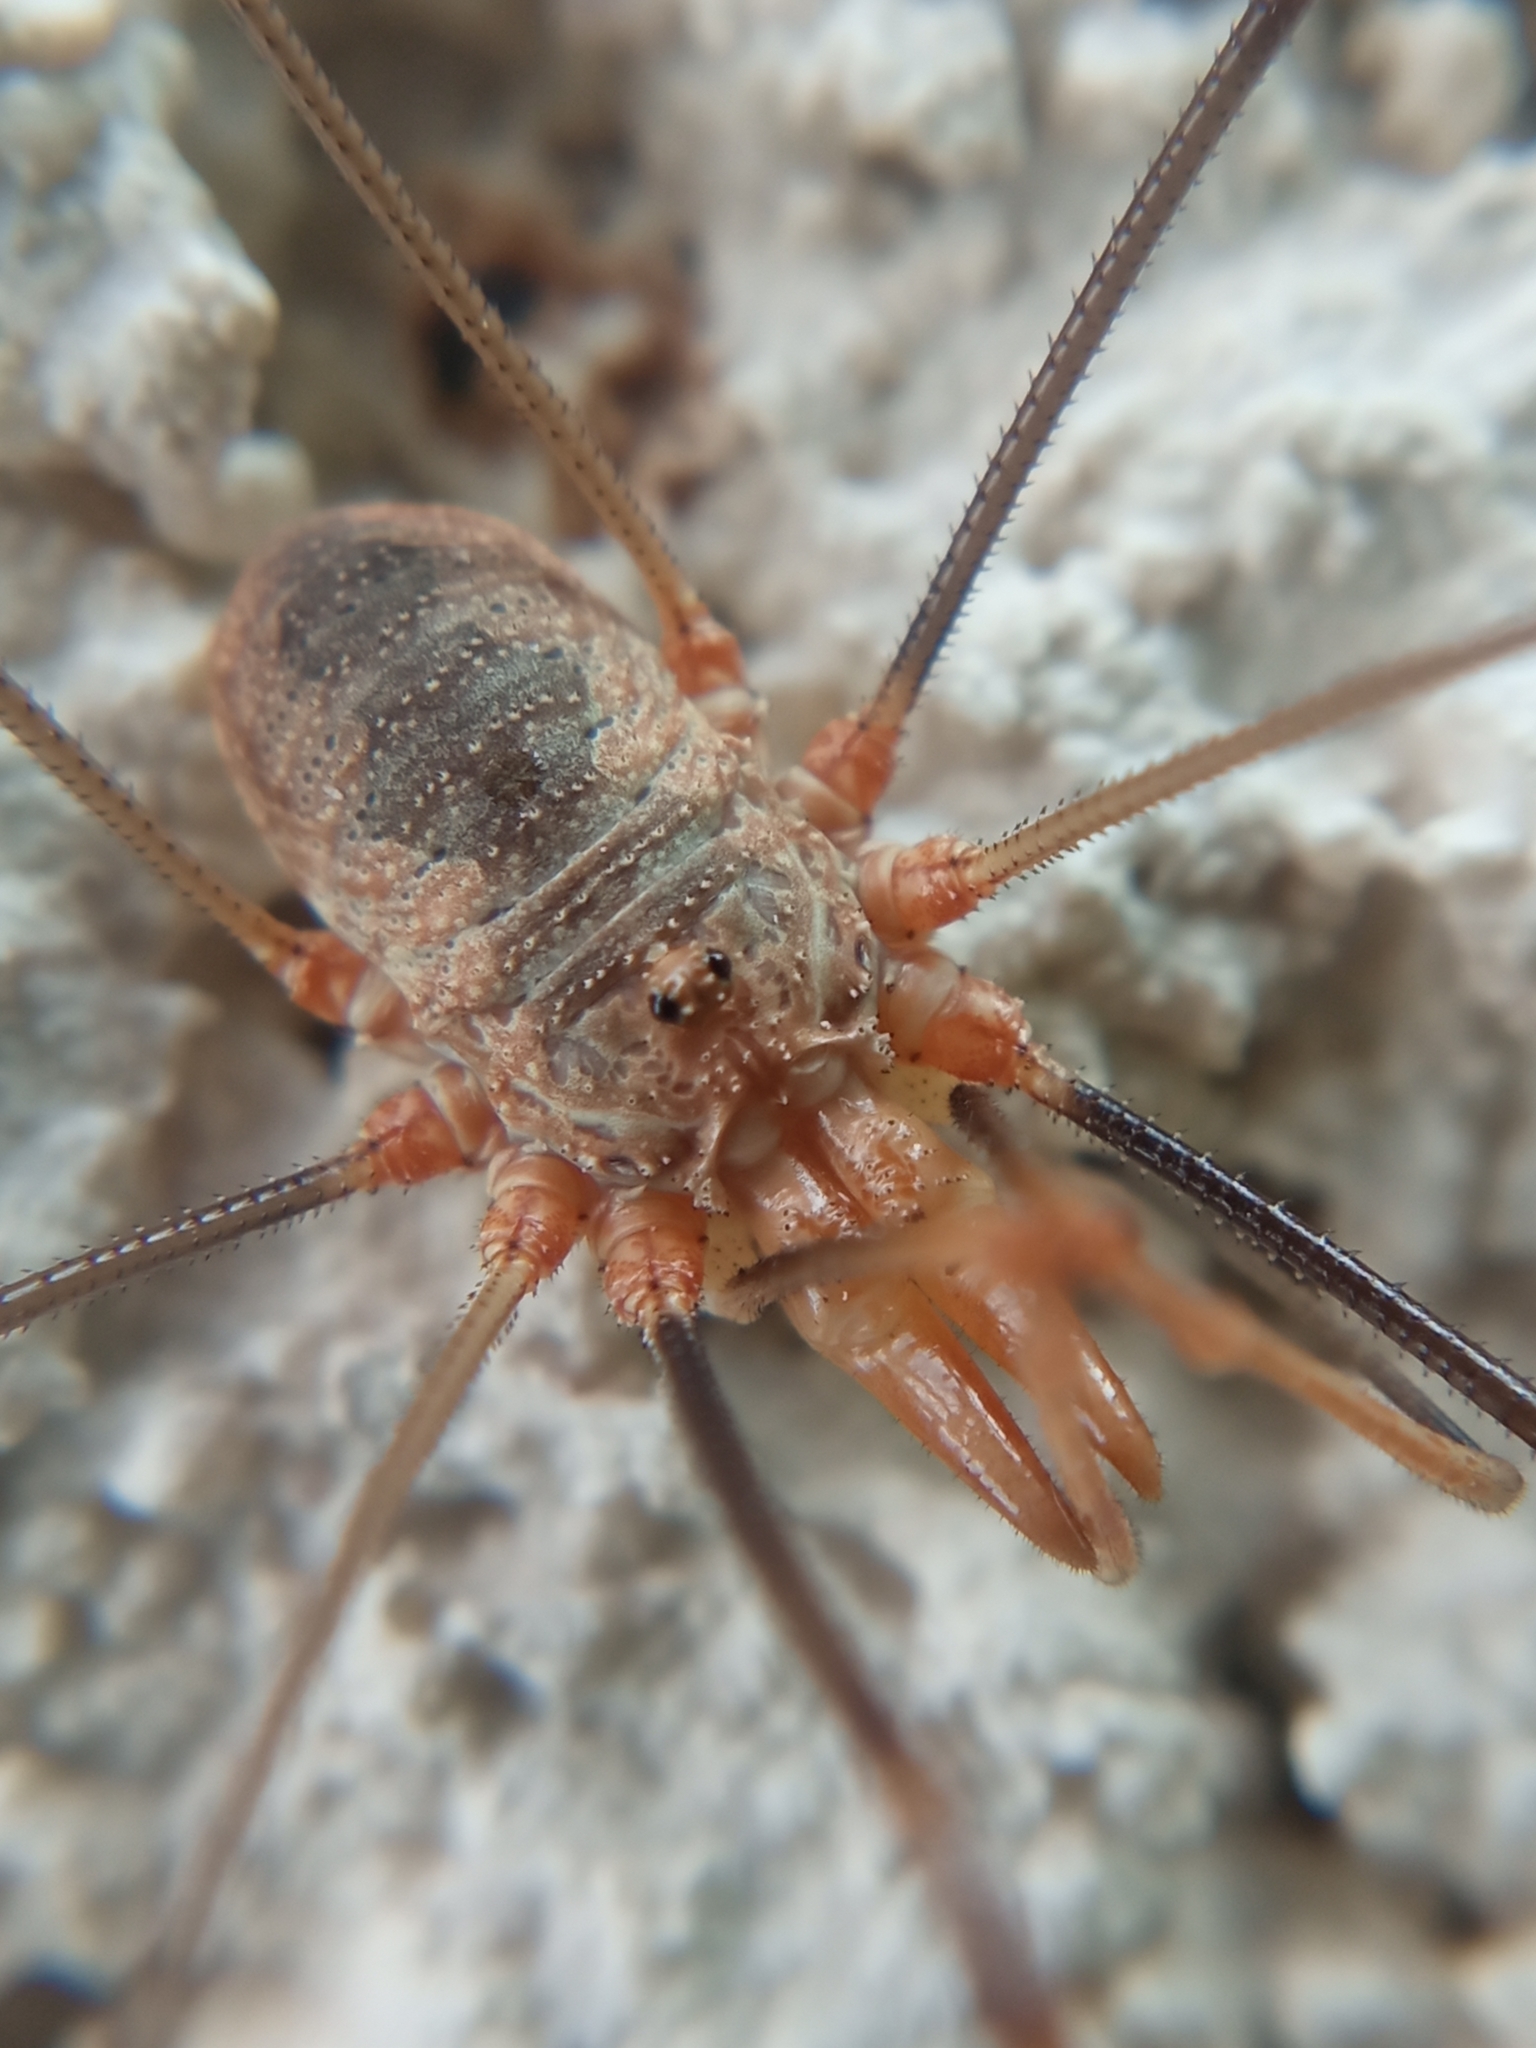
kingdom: Animalia
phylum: Arthropoda
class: Arachnida
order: Opiliones
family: Phalangiidae
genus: Phalangium
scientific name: Phalangium opilio
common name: Daddy longleg
